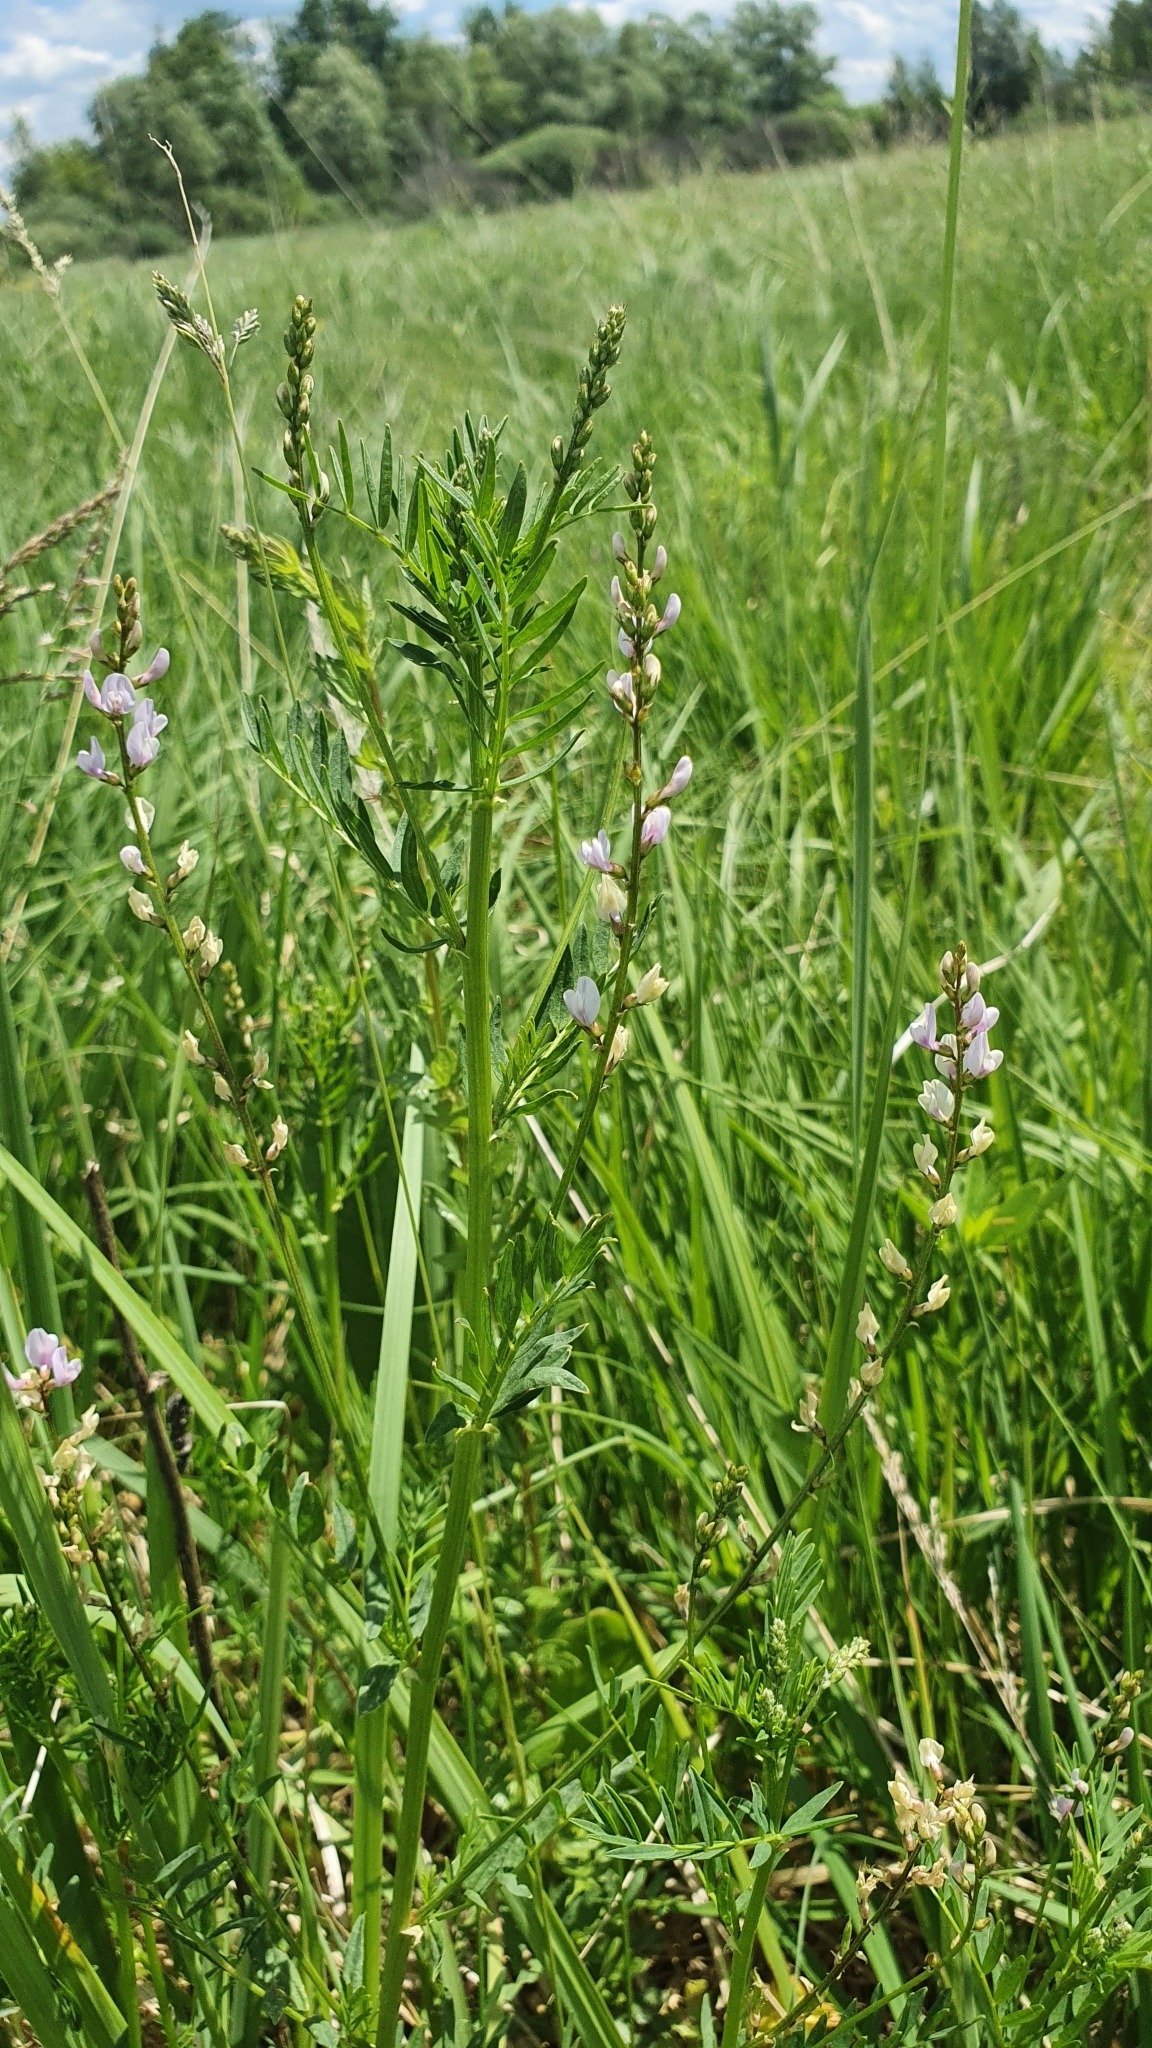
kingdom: Plantae
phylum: Tracheophyta
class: Magnoliopsida
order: Fabales
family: Fabaceae
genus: Astragalus
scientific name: Astragalus sulcatus
